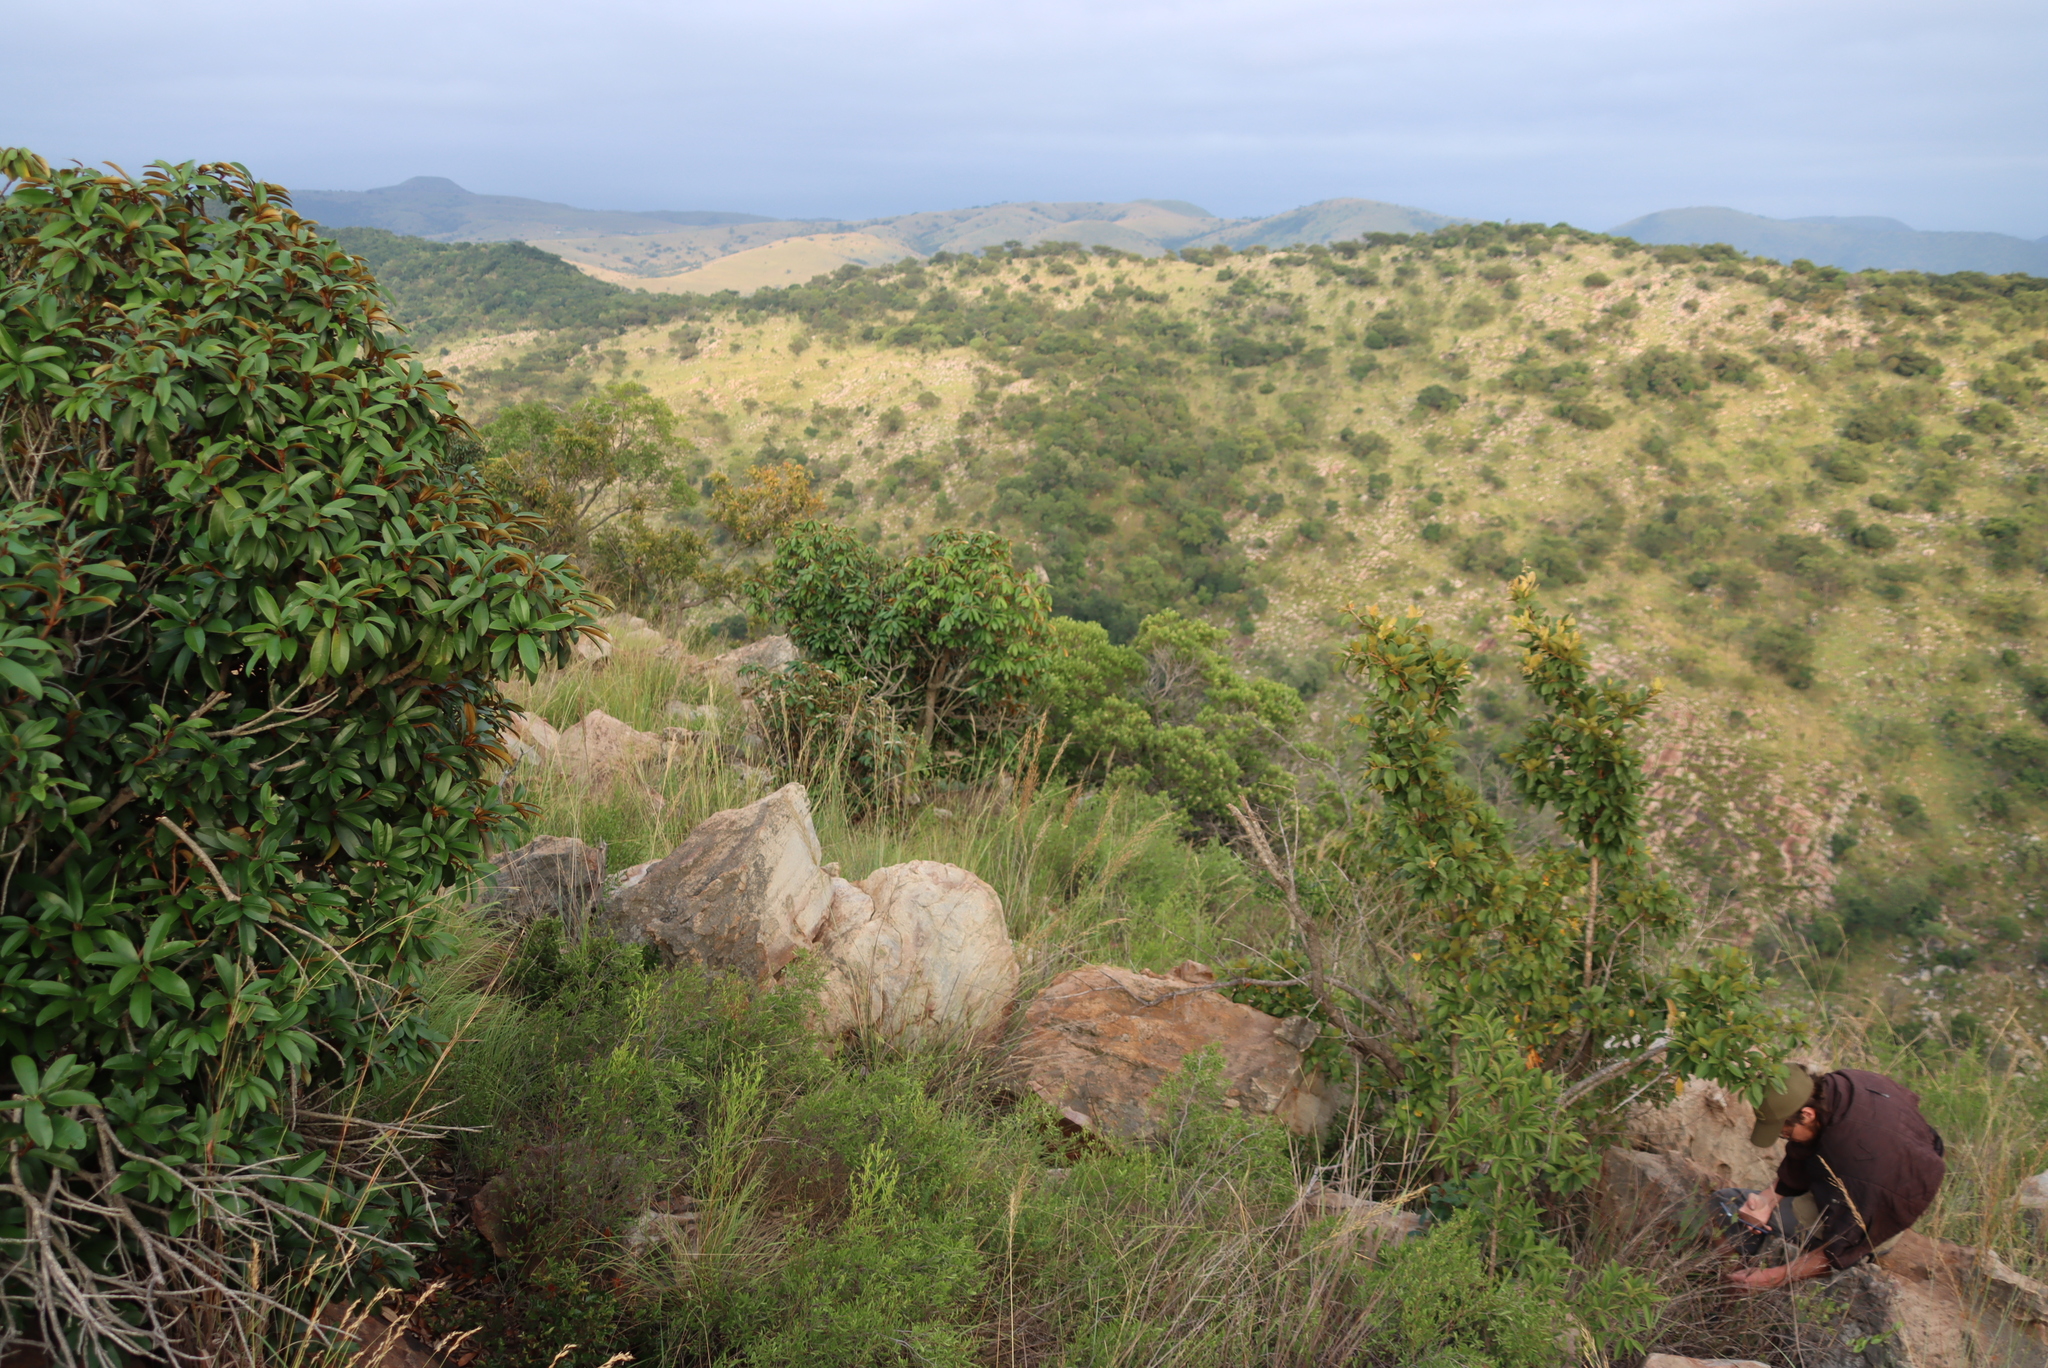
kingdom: Plantae
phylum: Tracheophyta
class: Magnoliopsida
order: Ericales
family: Sapotaceae
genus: Englerophytum
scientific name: Englerophytum magalismontanum
